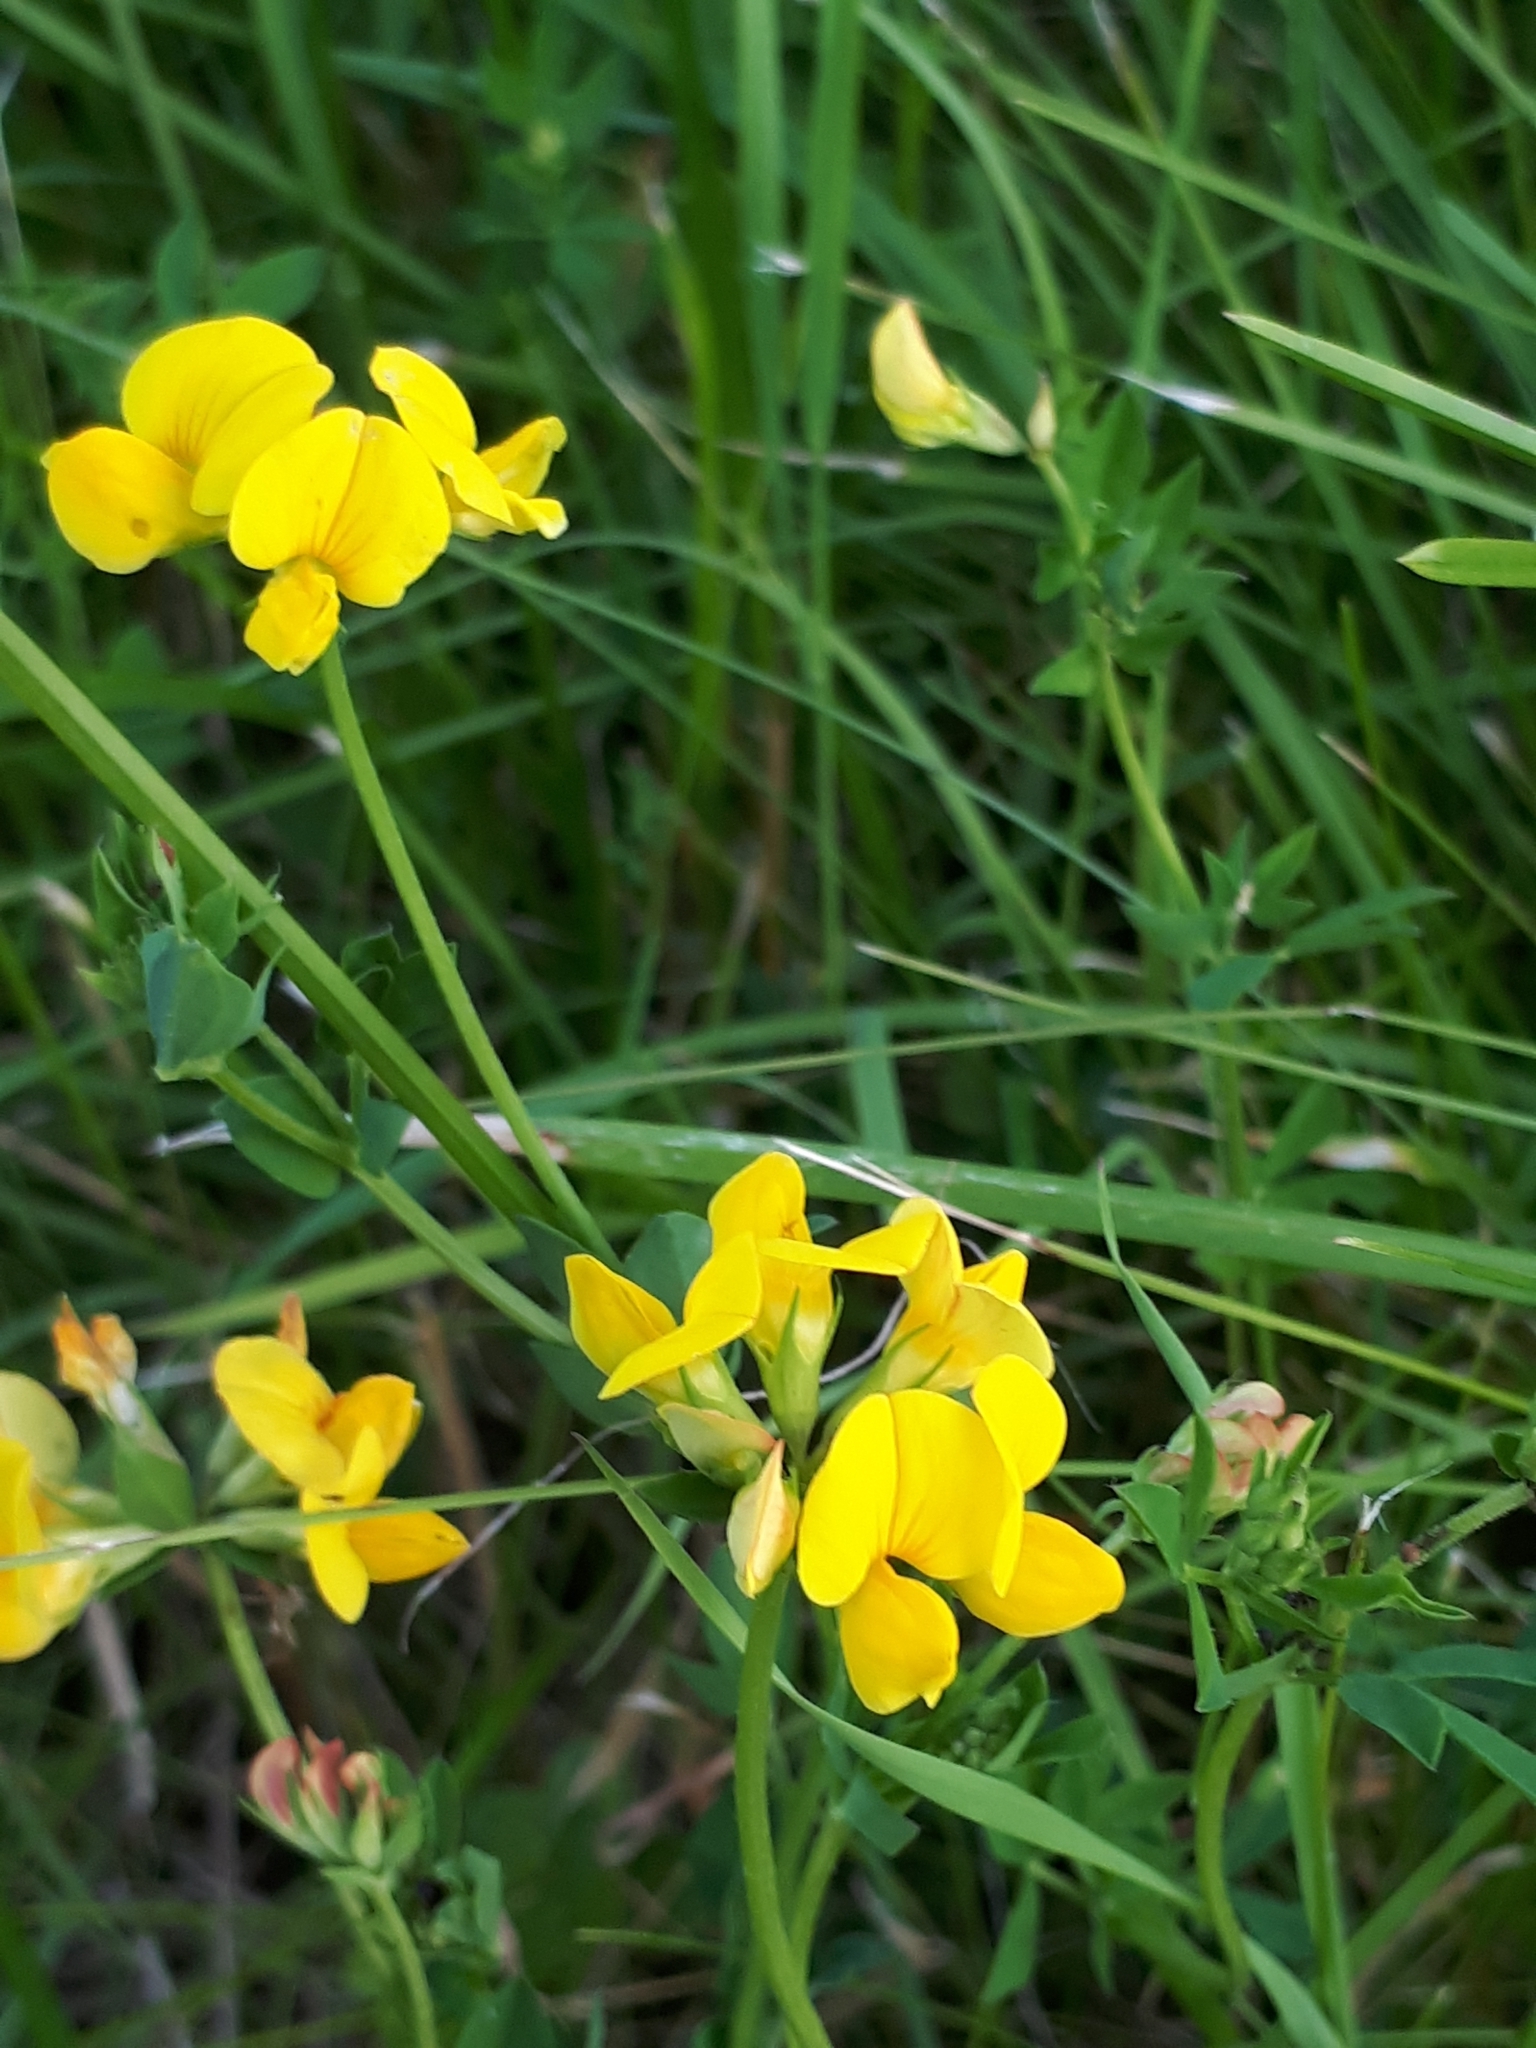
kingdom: Plantae
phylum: Tracheophyta
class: Magnoliopsida
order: Fabales
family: Fabaceae
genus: Lotus
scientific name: Lotus corniculatus
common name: Common bird's-foot-trefoil
